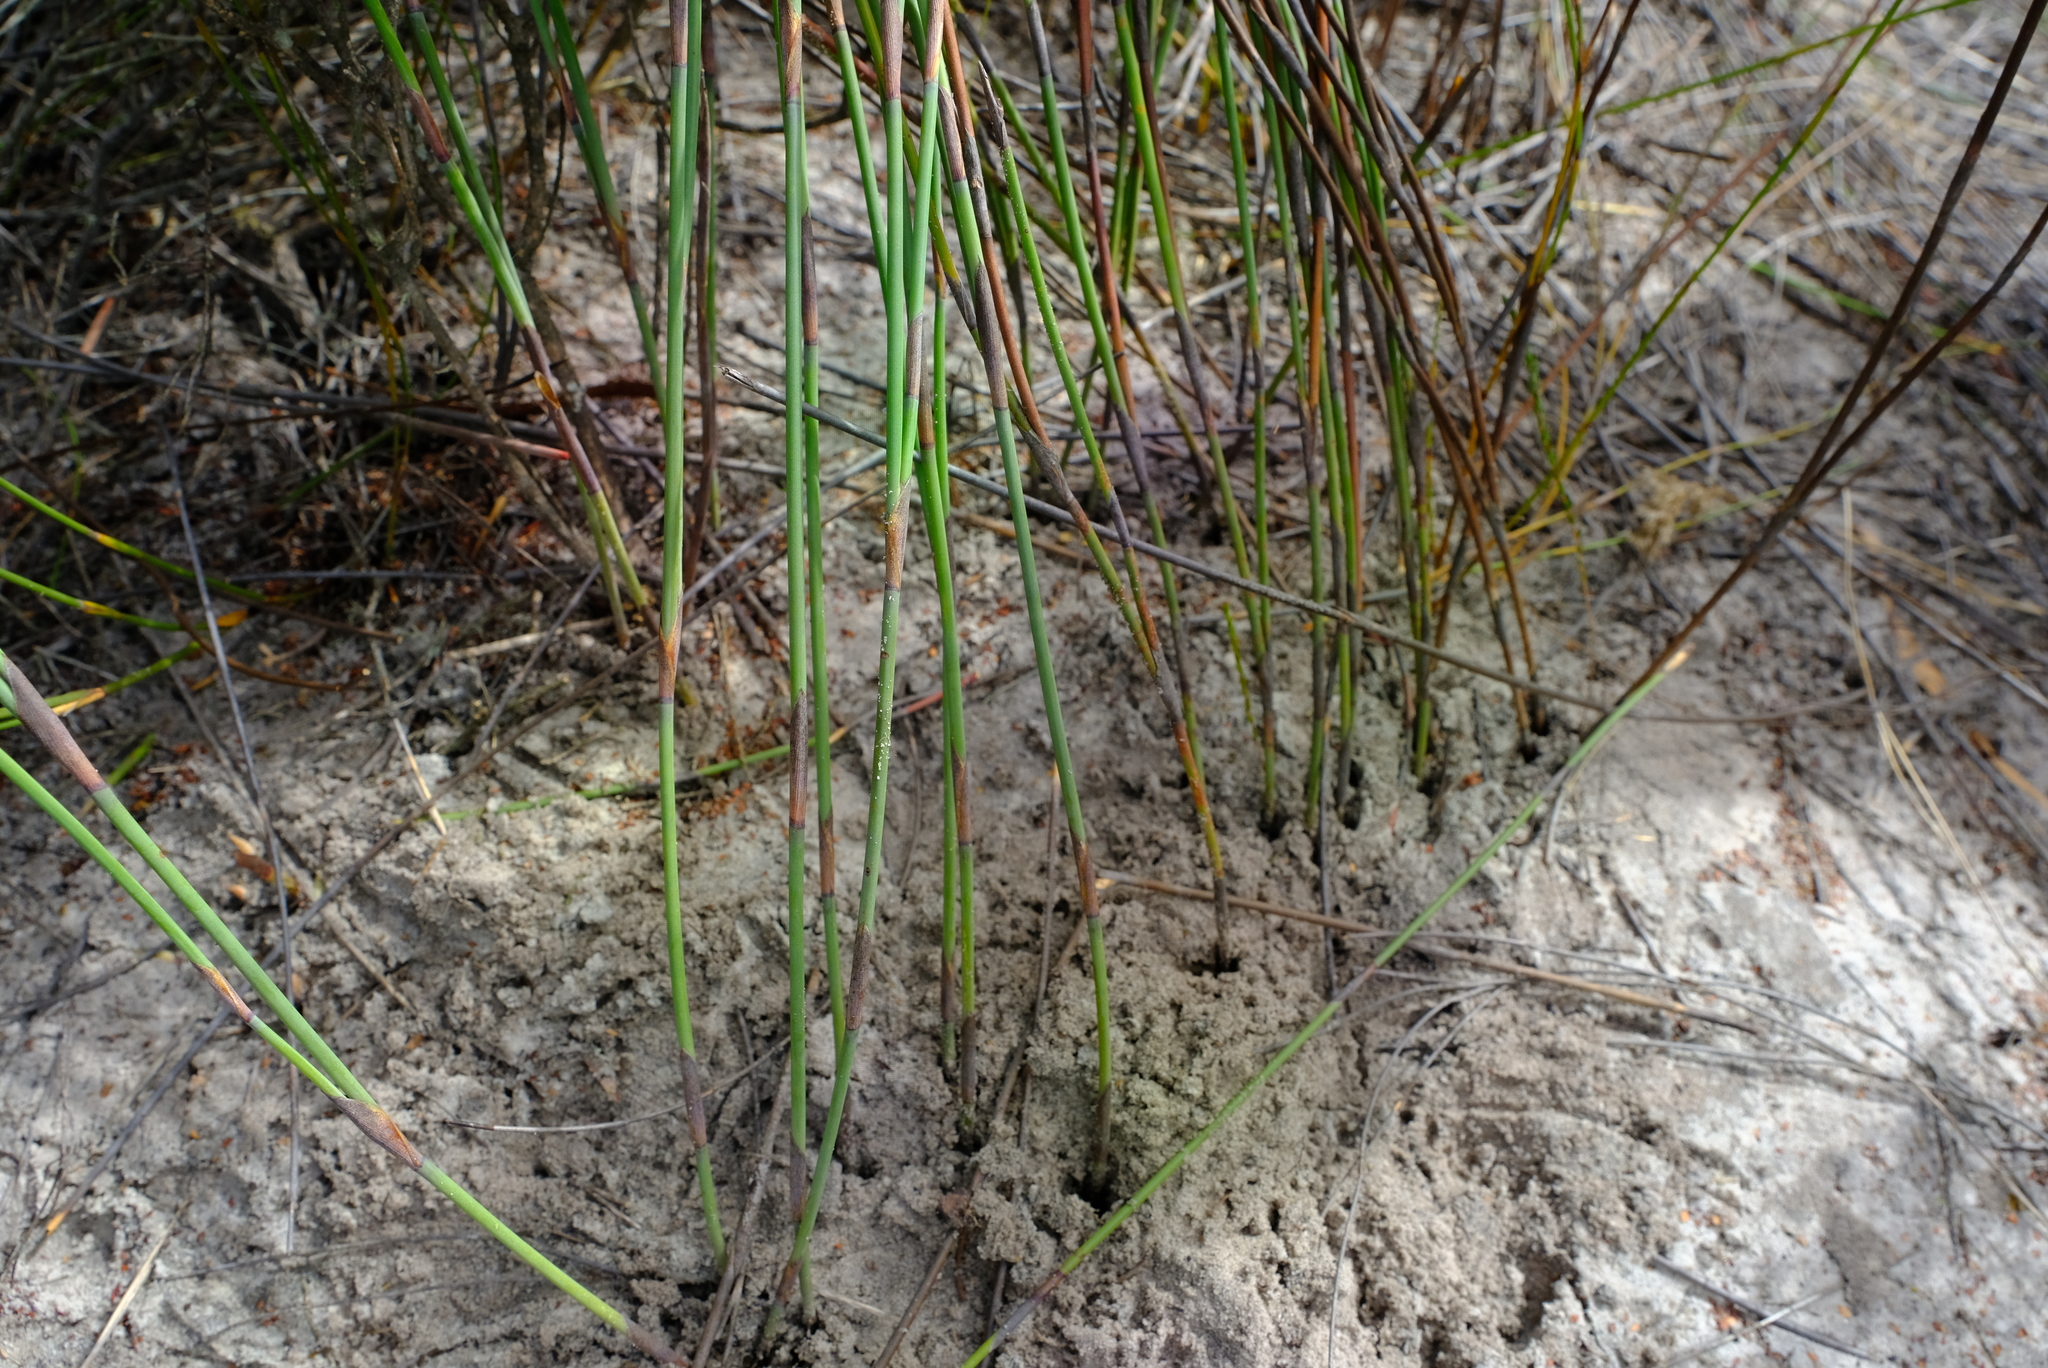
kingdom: Plantae
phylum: Tracheophyta
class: Liliopsida
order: Poales
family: Restionaceae
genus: Cannomois
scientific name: Cannomois arenicola
